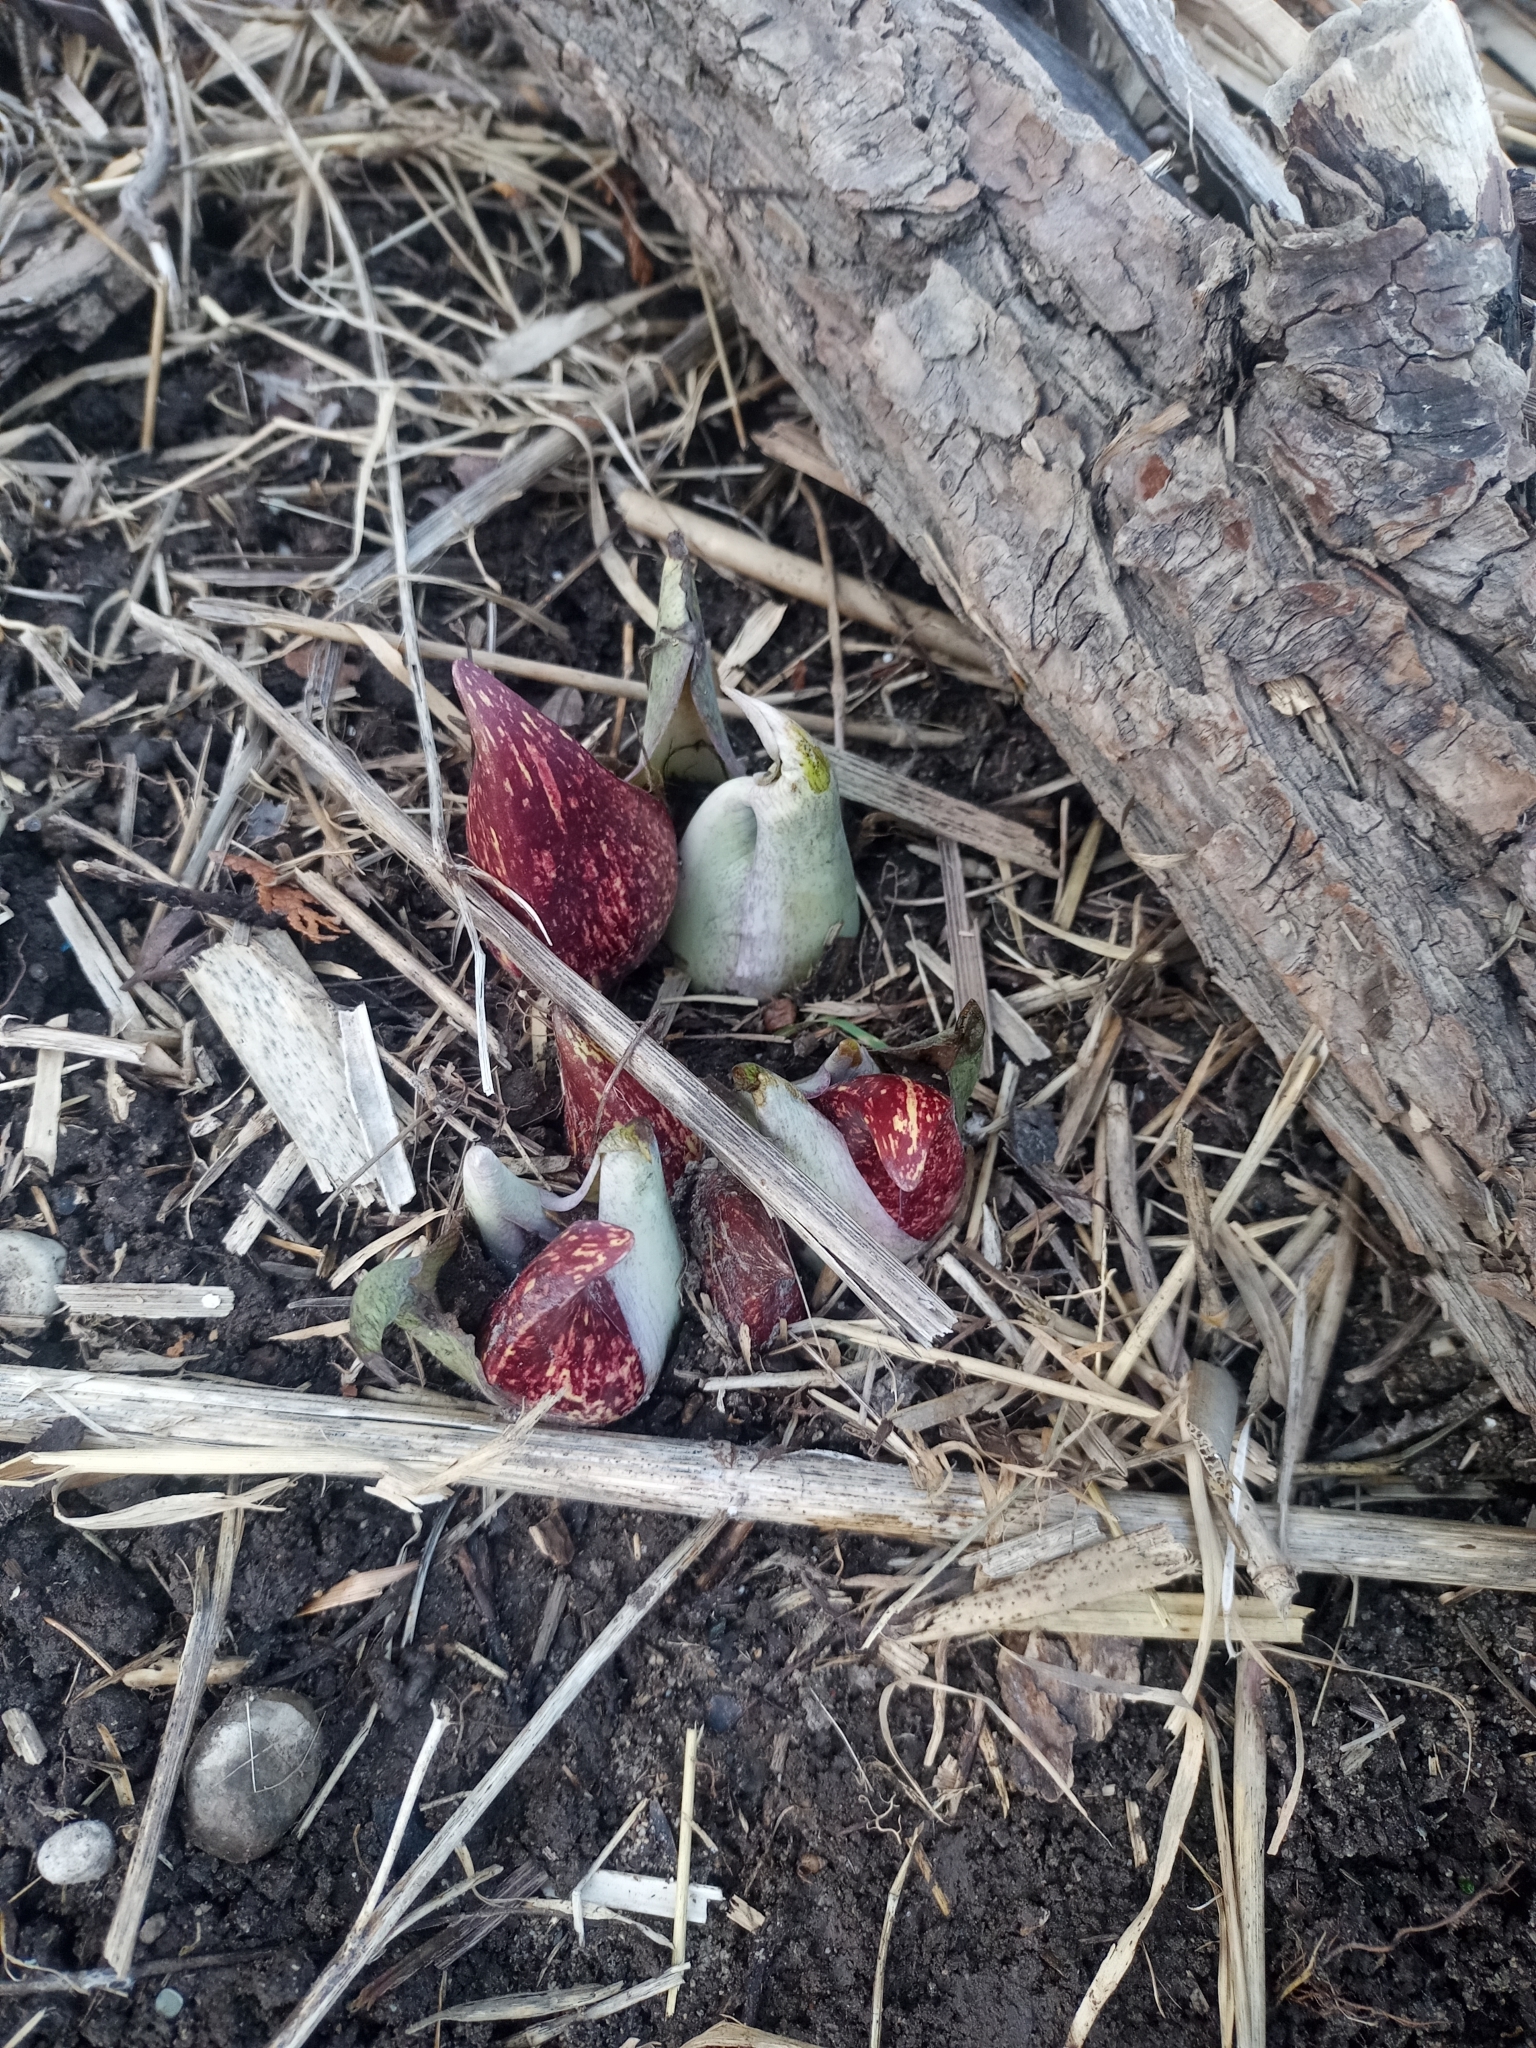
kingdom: Plantae
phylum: Tracheophyta
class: Liliopsida
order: Alismatales
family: Araceae
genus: Symplocarpus
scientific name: Symplocarpus foetidus
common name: Eastern skunk cabbage
